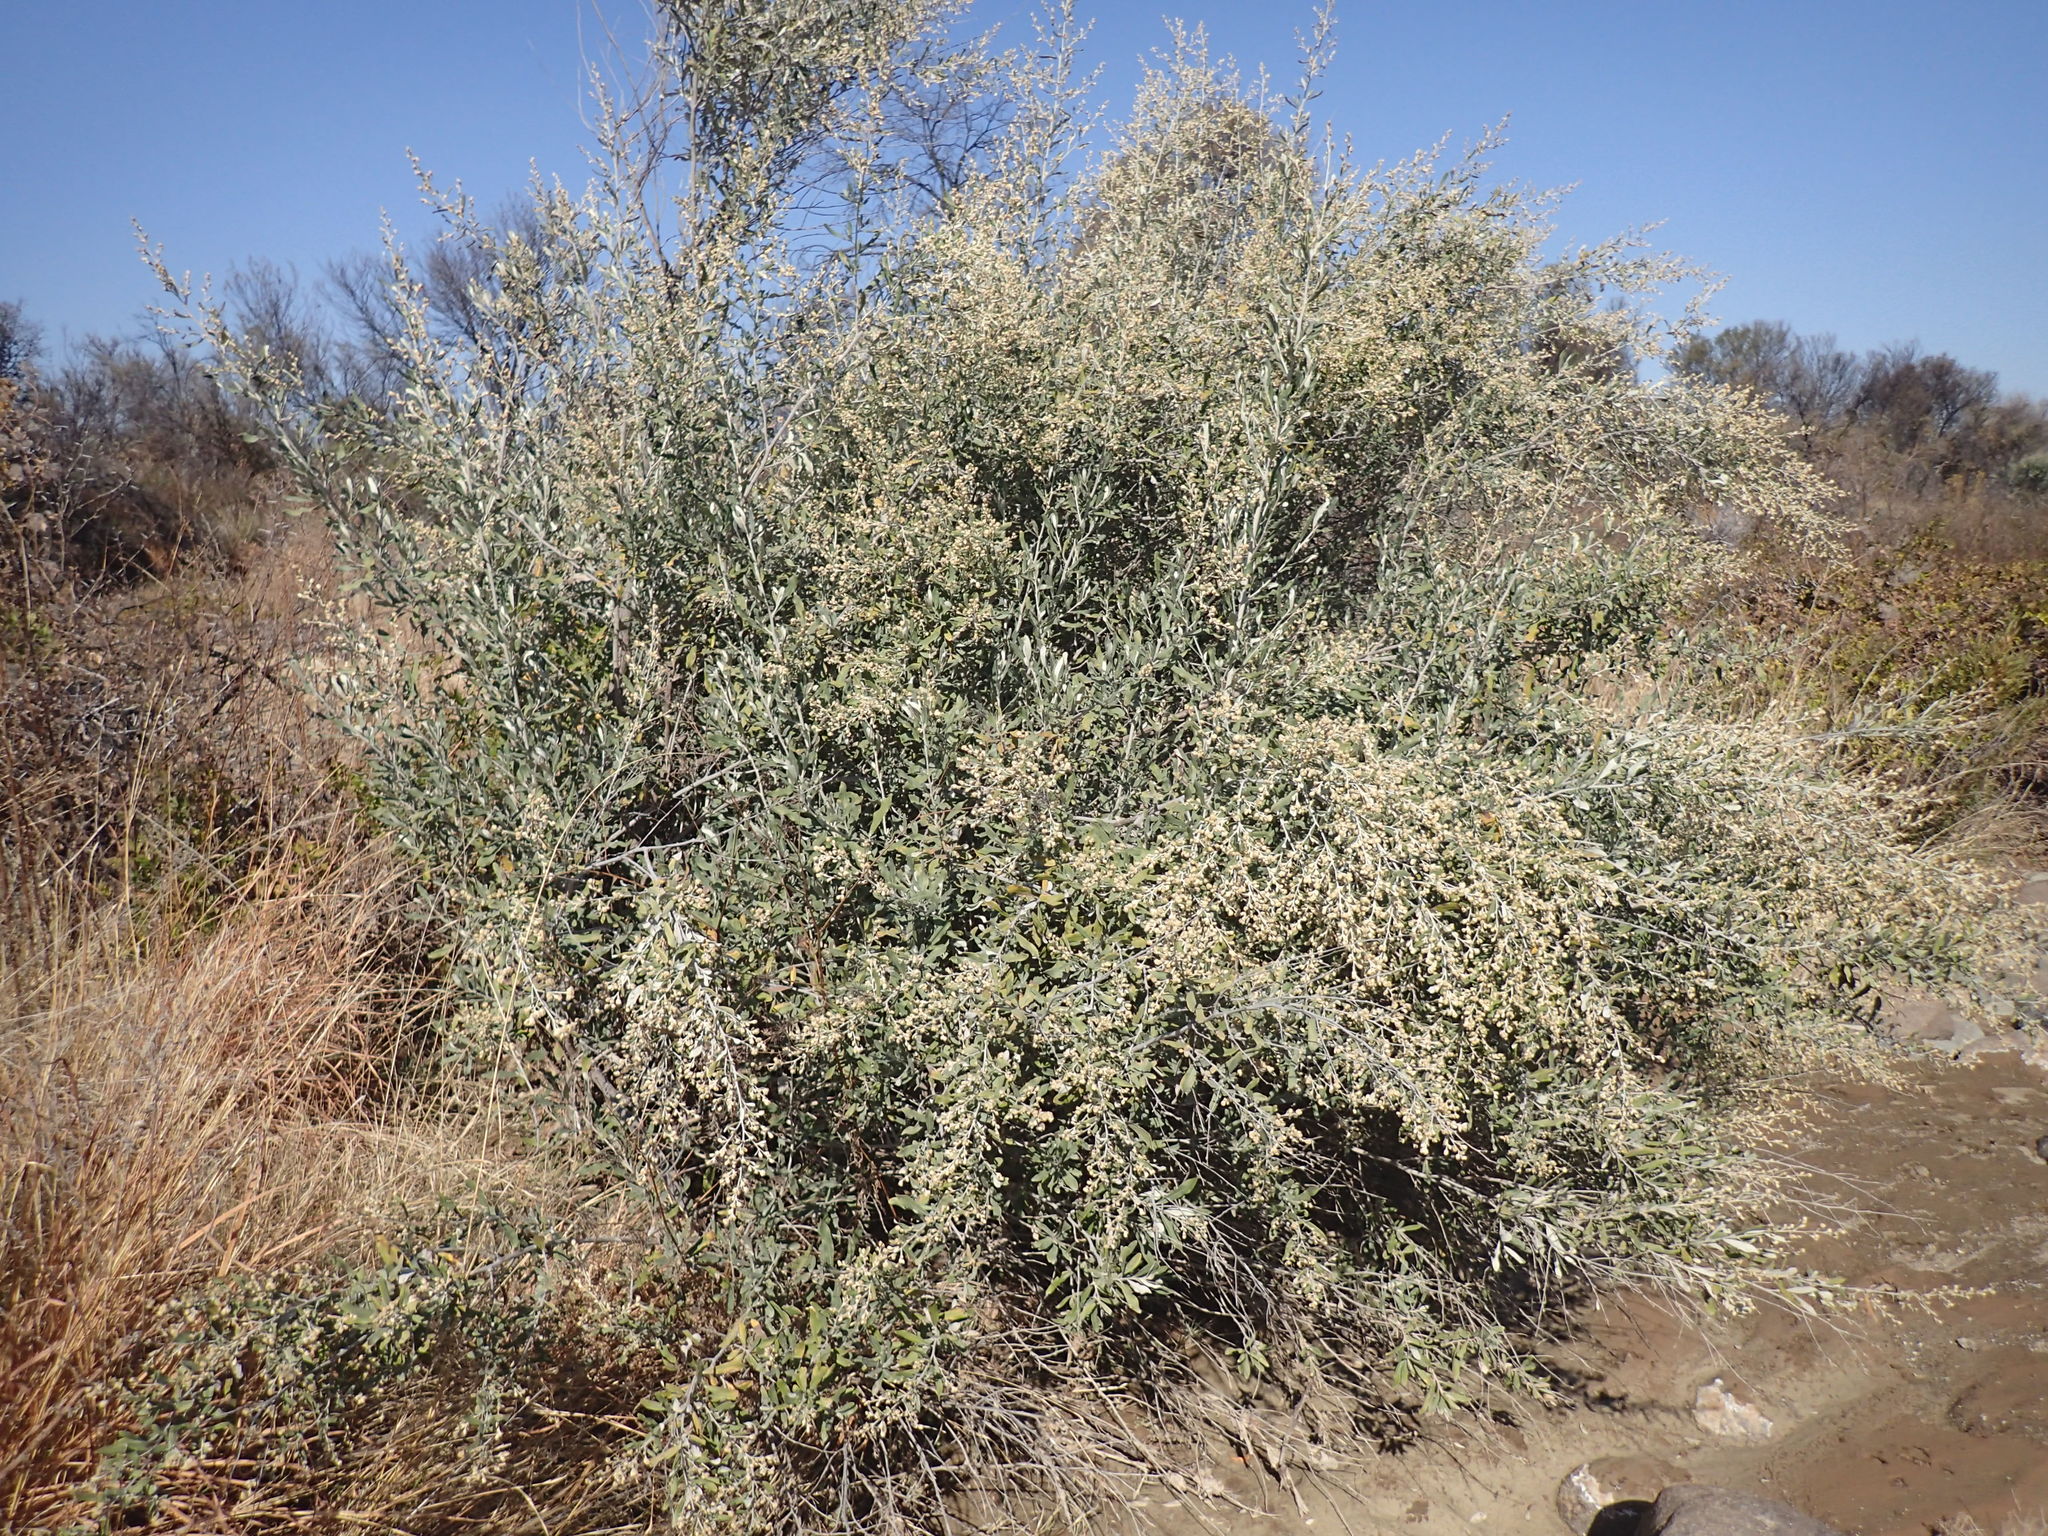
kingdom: Plantae
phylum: Tracheophyta
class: Magnoliopsida
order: Asterales
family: Asteraceae
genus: Tarchonanthus
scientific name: Tarchonanthus camphoratus
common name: Camphorwood
